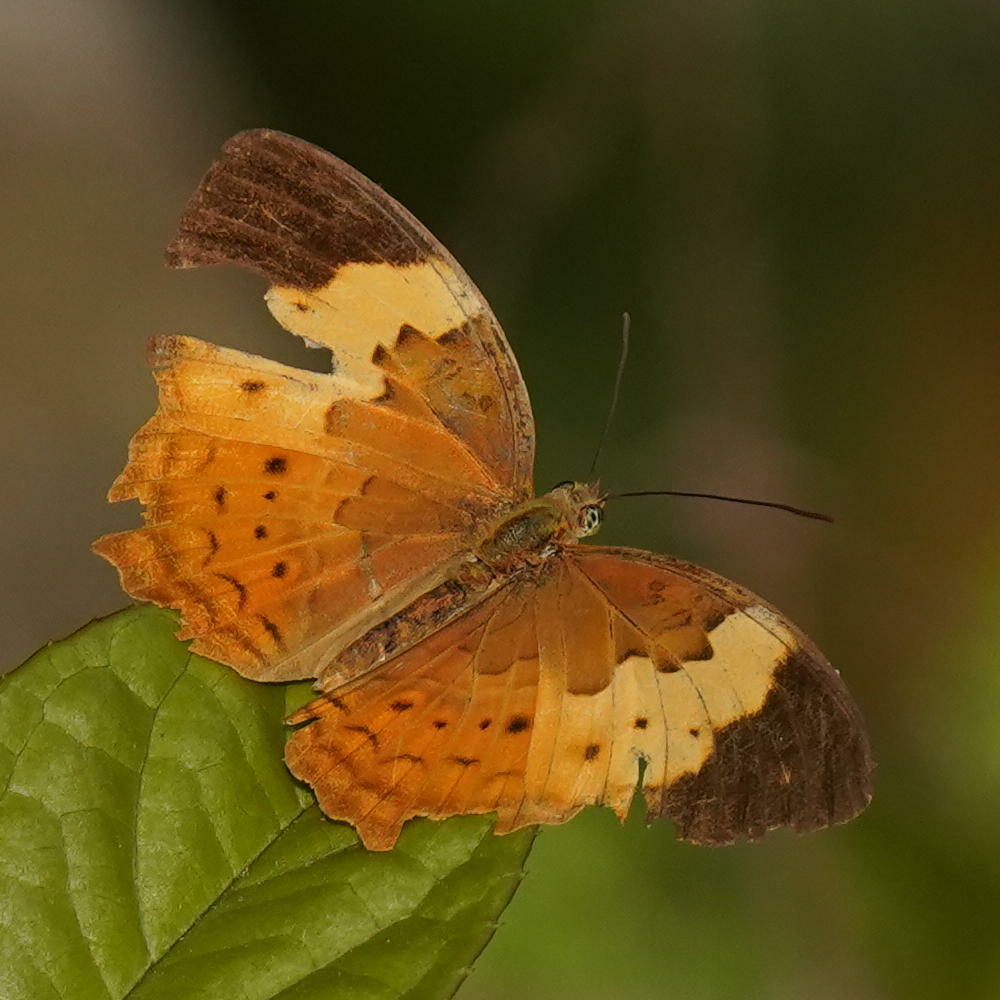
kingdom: Animalia
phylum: Arthropoda
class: Insecta
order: Lepidoptera
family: Nymphalidae
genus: Cupha
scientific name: Cupha erymanthis
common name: Rustic
